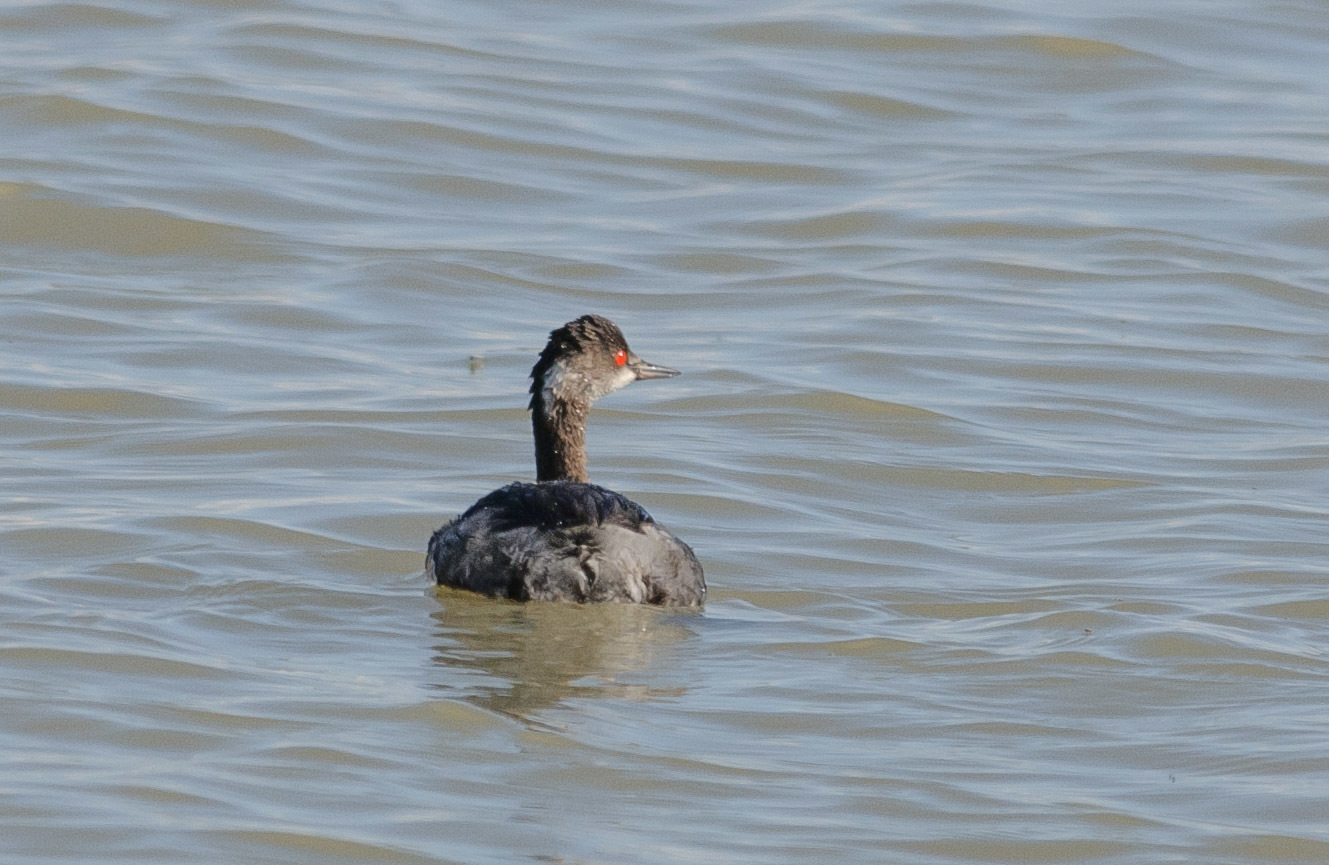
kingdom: Animalia
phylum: Chordata
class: Aves
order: Podicipediformes
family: Podicipedidae
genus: Podiceps
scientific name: Podiceps nigricollis
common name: Black-necked grebe
